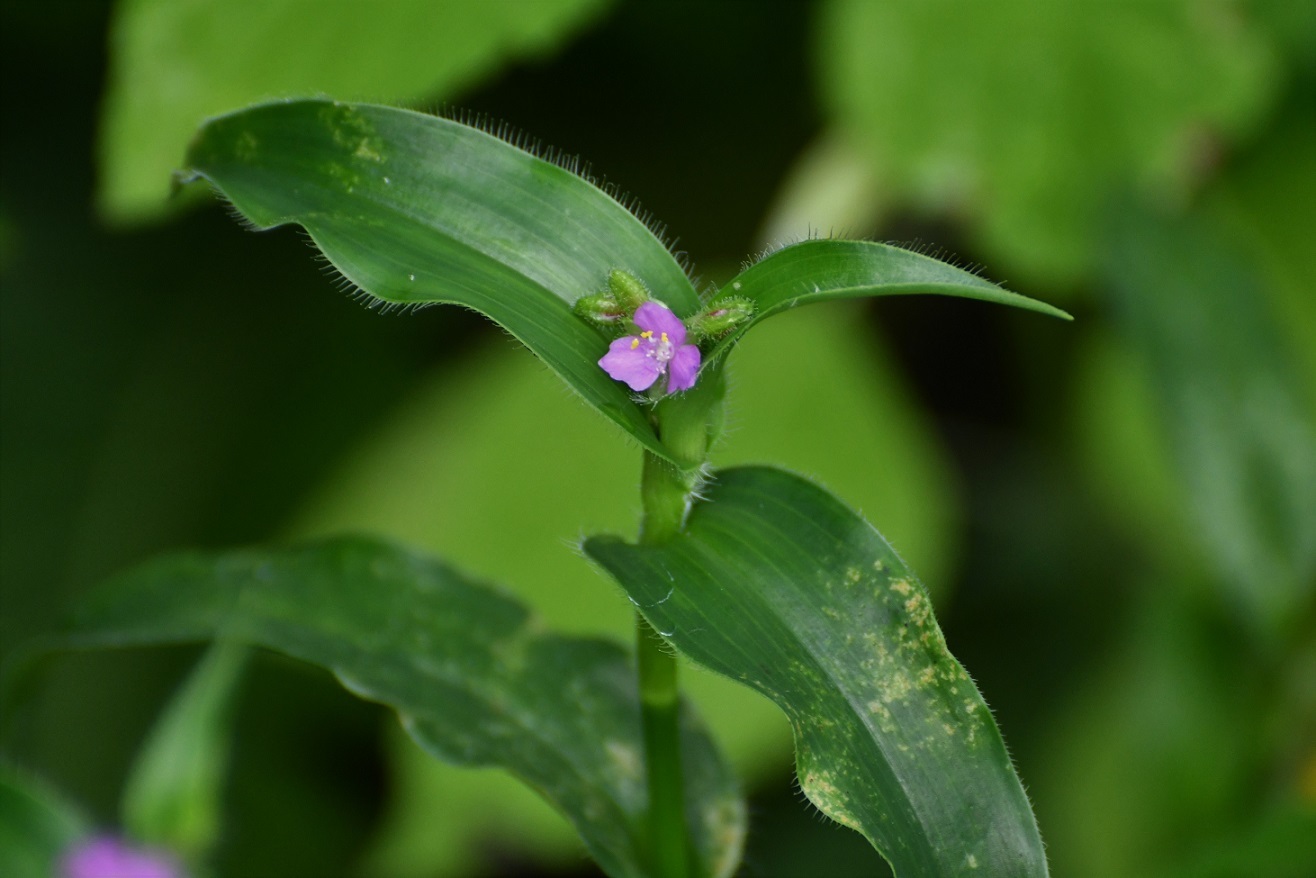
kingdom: Plantae
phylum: Tracheophyta
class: Liliopsida
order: Commelinales
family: Commelinaceae
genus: Callisia
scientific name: Callisia purpurascens
